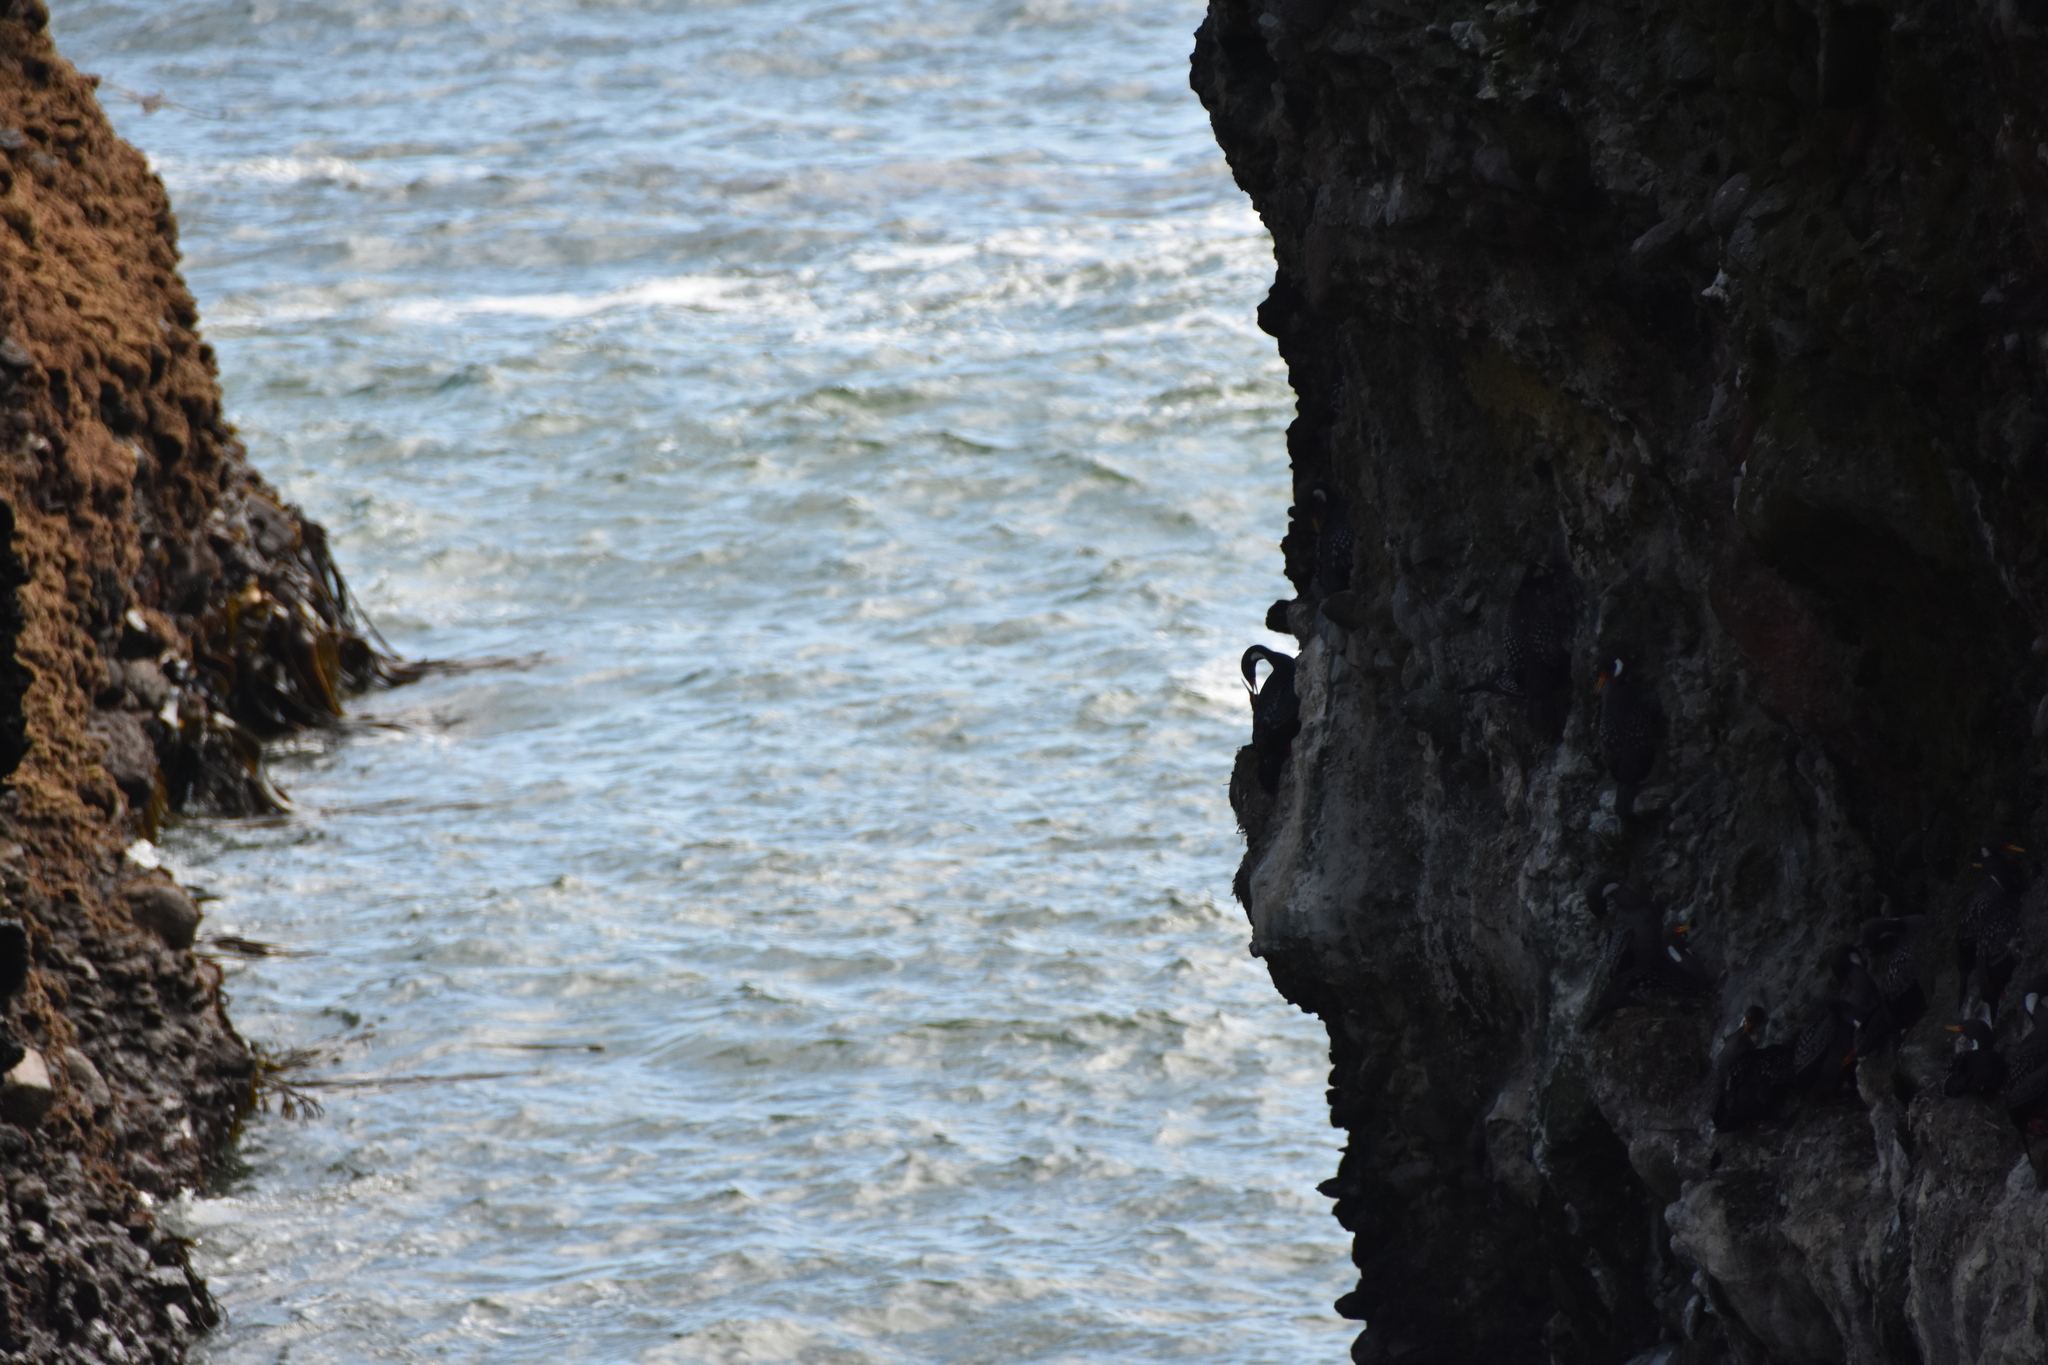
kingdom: Animalia
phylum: Chordata
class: Aves
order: Suliformes
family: Phalacrocoracidae
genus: Phalacrocorax
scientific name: Phalacrocorax gaimardi
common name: Red-legged cormorant
